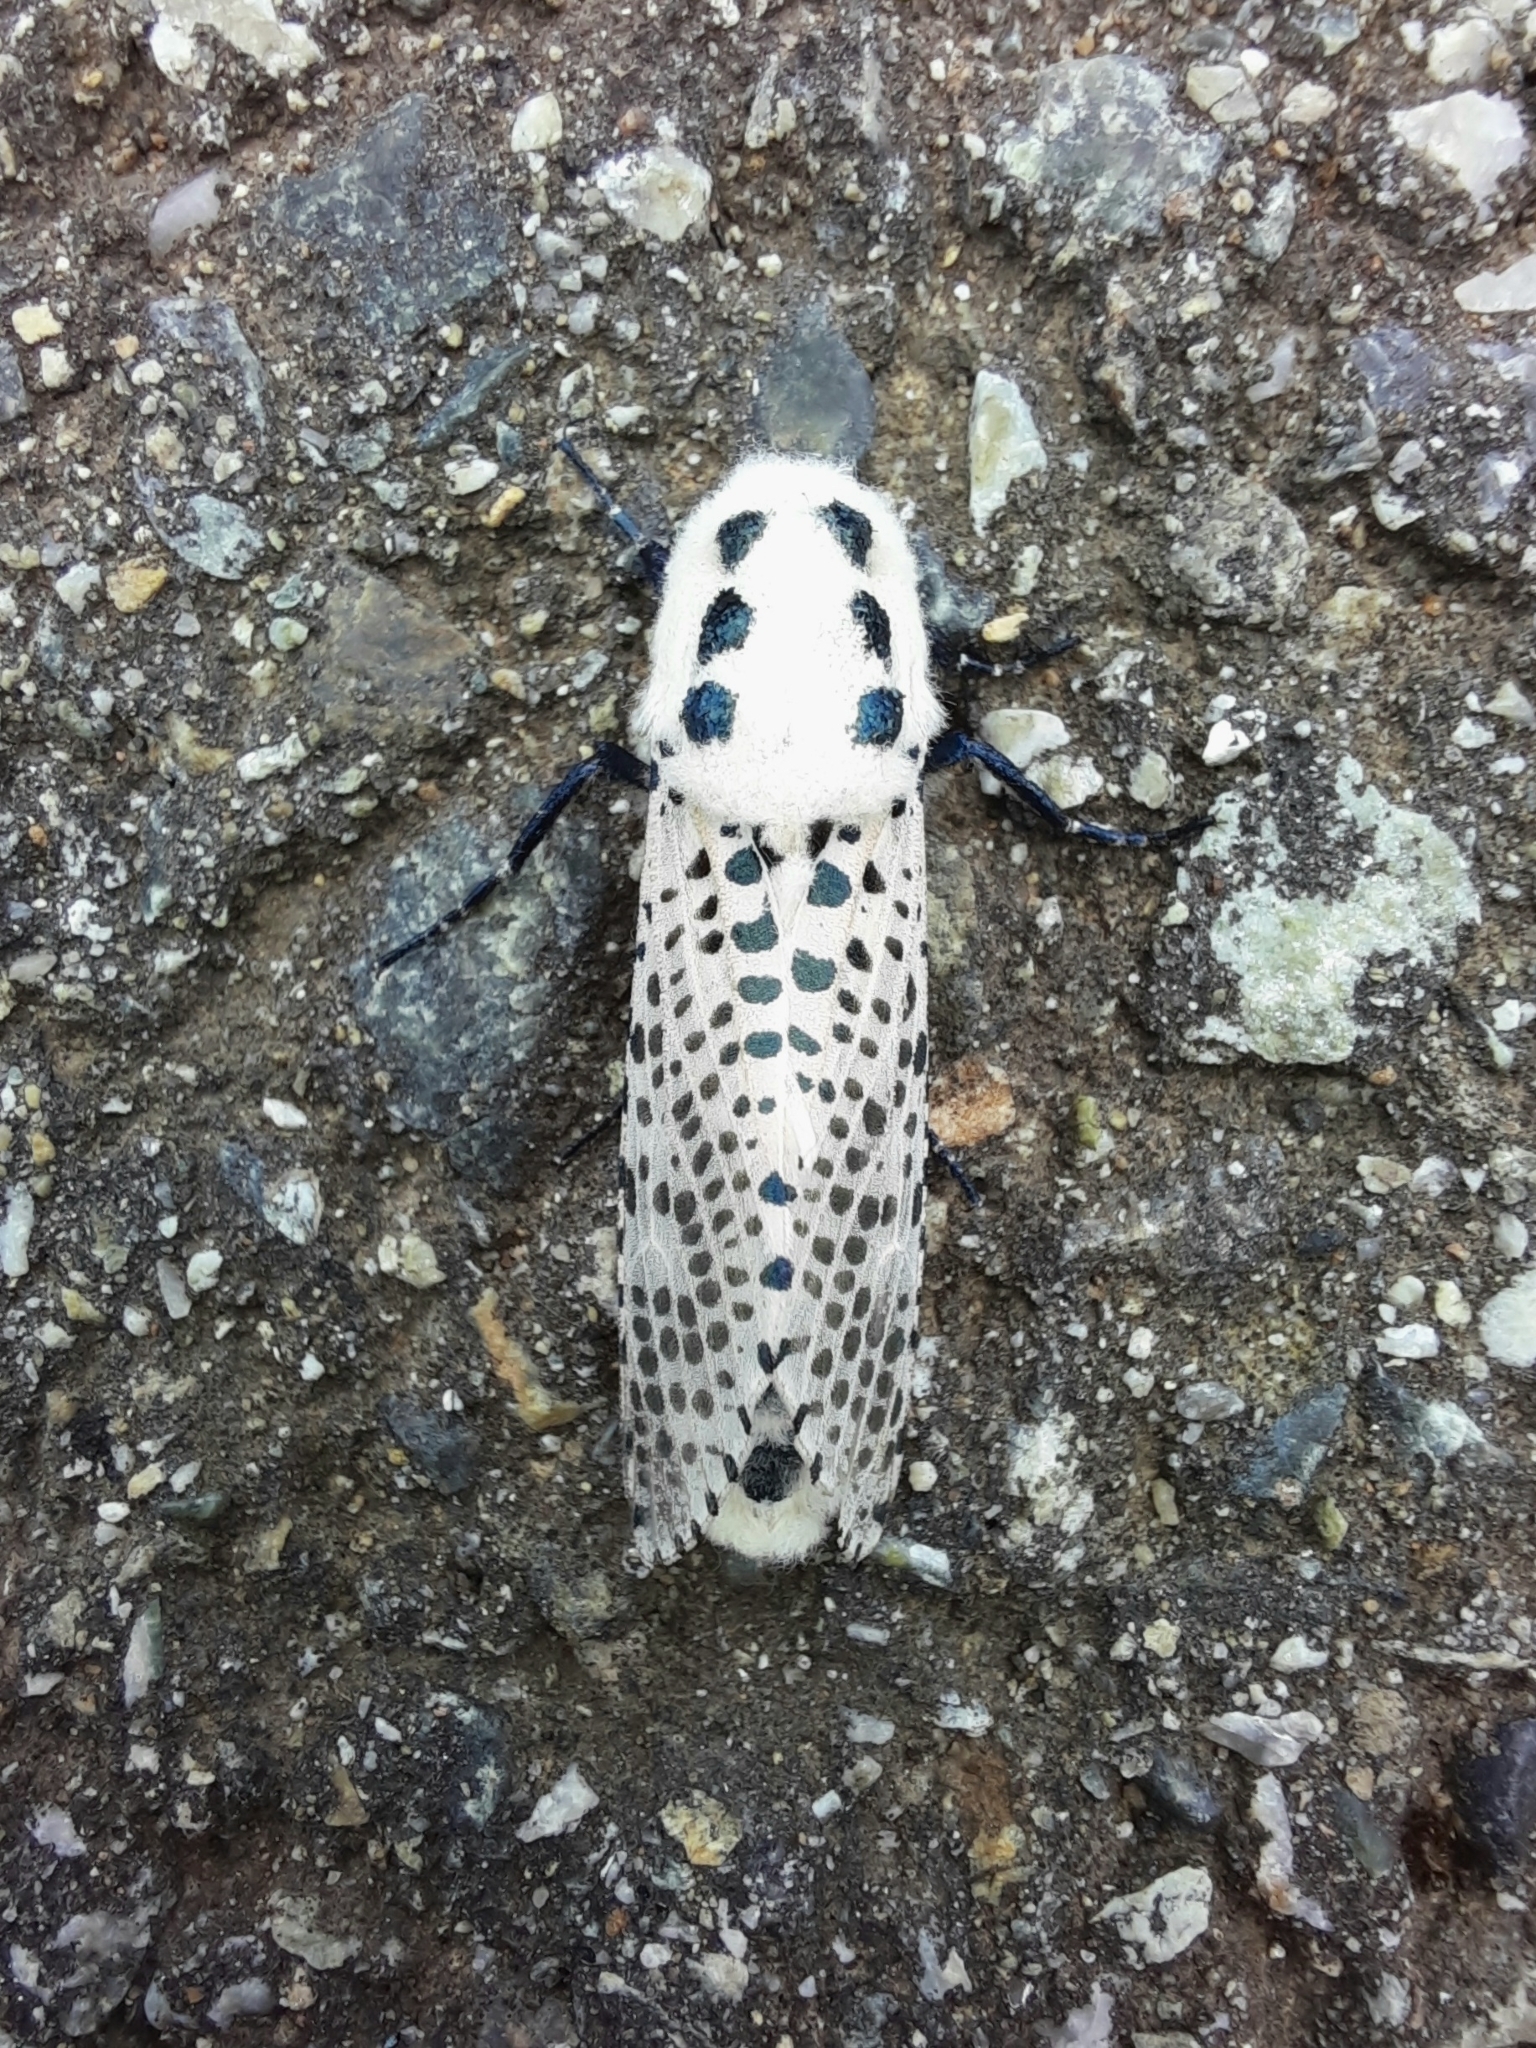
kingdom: Animalia
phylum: Arthropoda
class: Insecta
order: Lepidoptera
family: Cossidae
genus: Zeuzera
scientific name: Zeuzera pyrina
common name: Leopard moth
